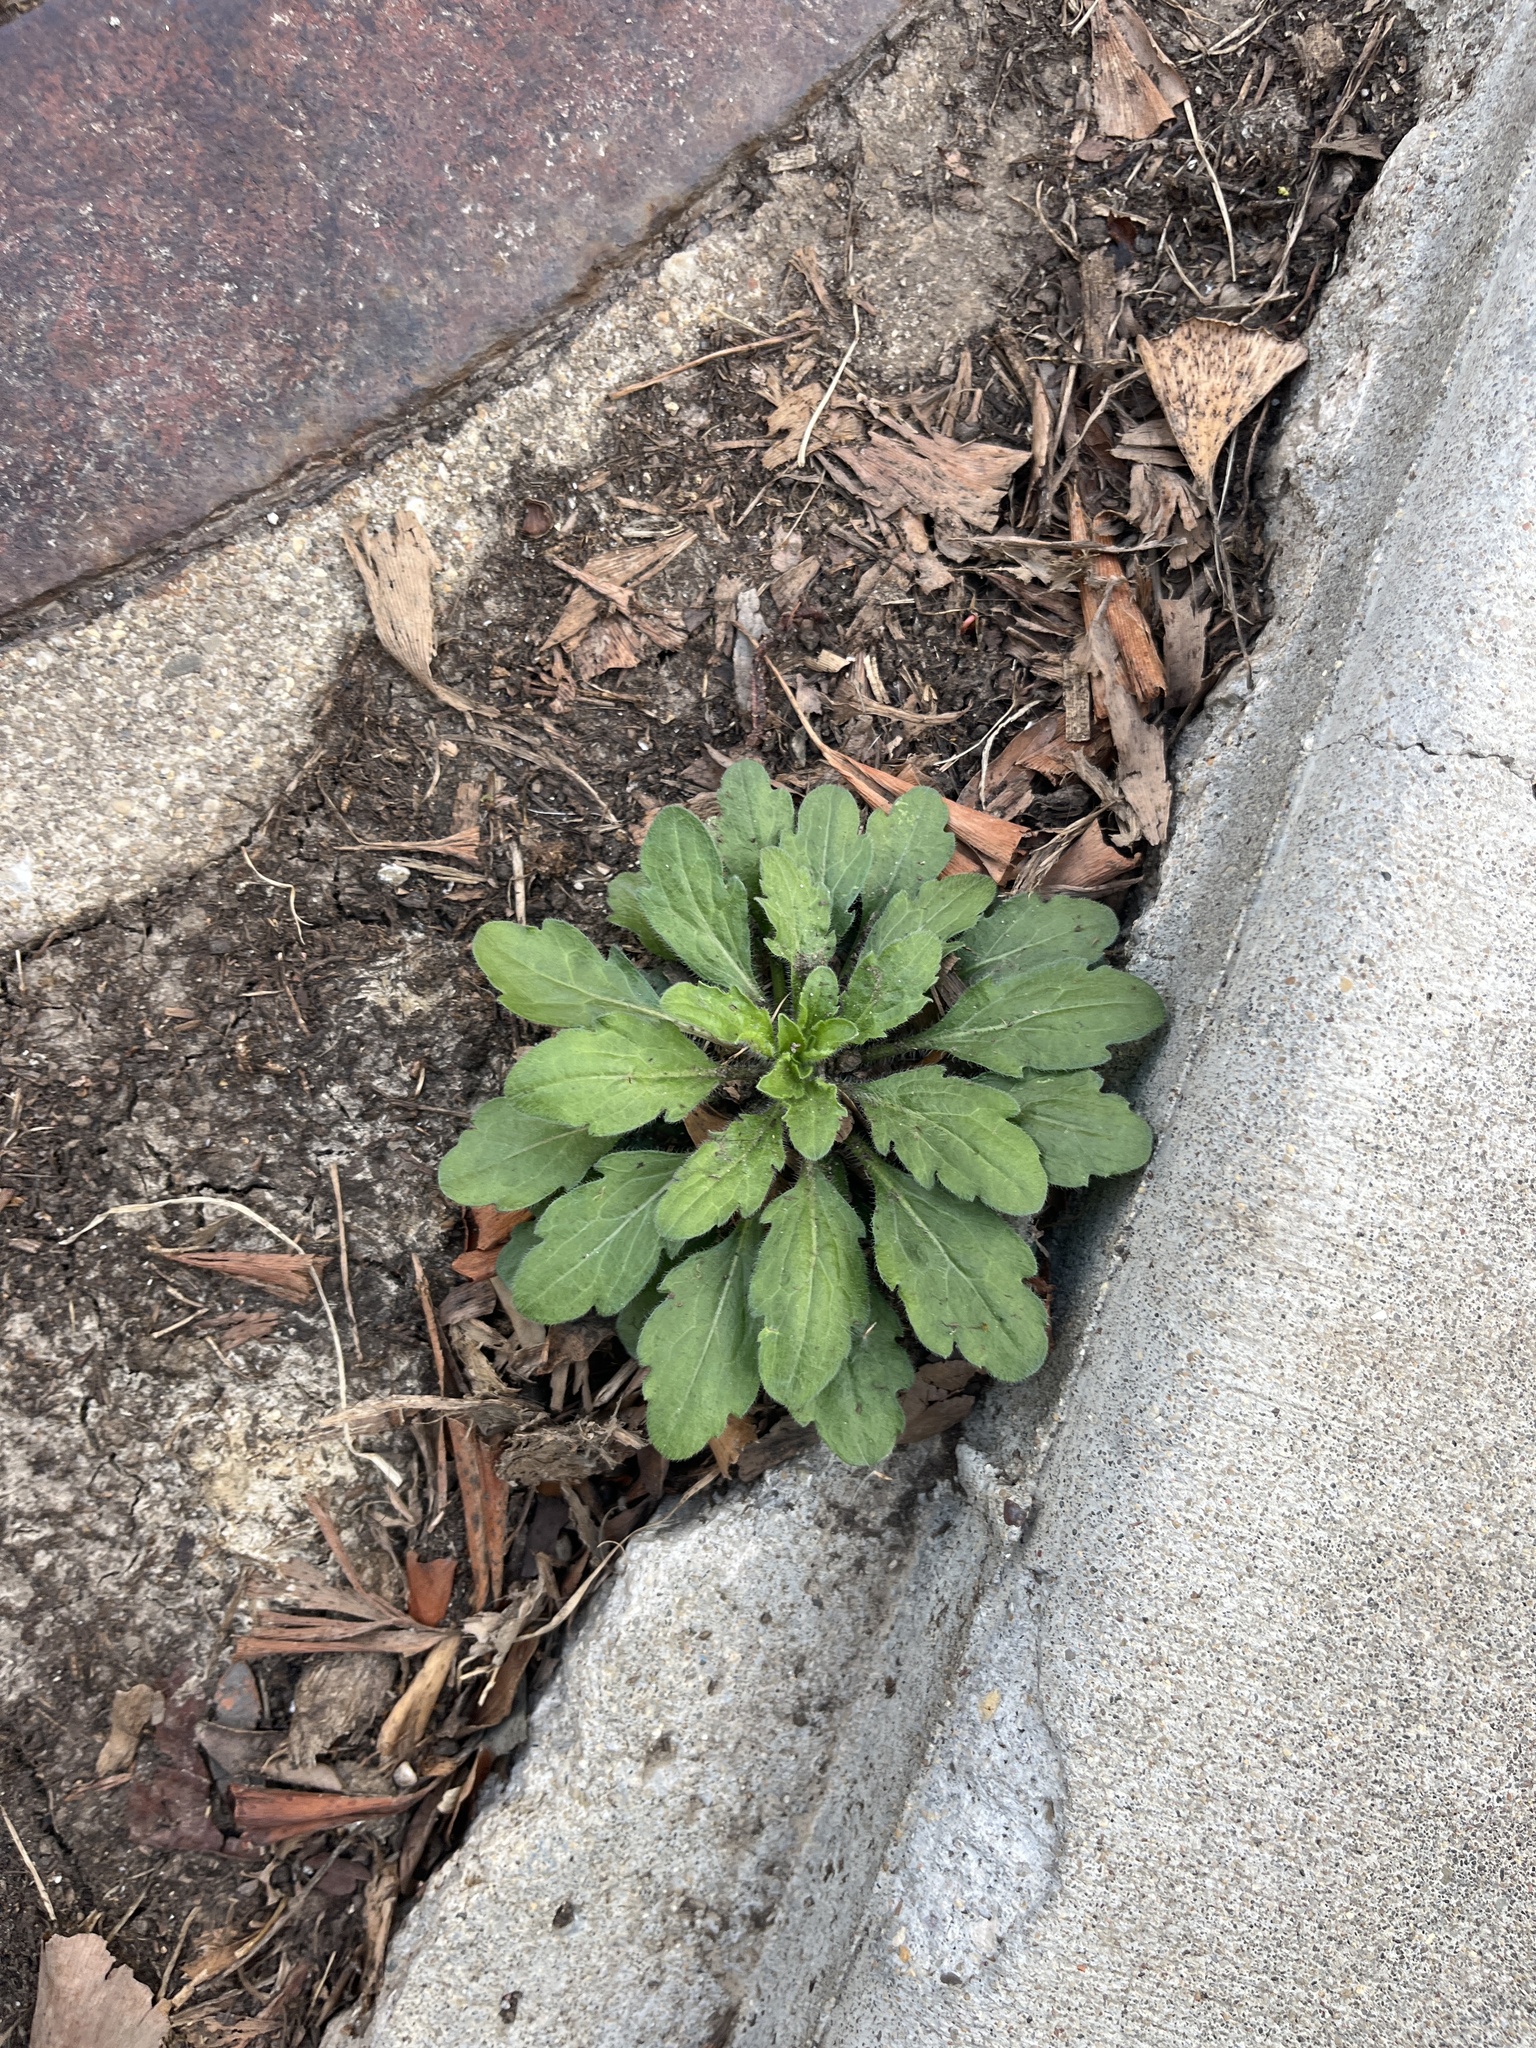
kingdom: Plantae
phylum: Tracheophyta
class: Magnoliopsida
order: Asterales
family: Asteraceae
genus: Erigeron
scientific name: Erigeron canadensis
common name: Canadian fleabane
